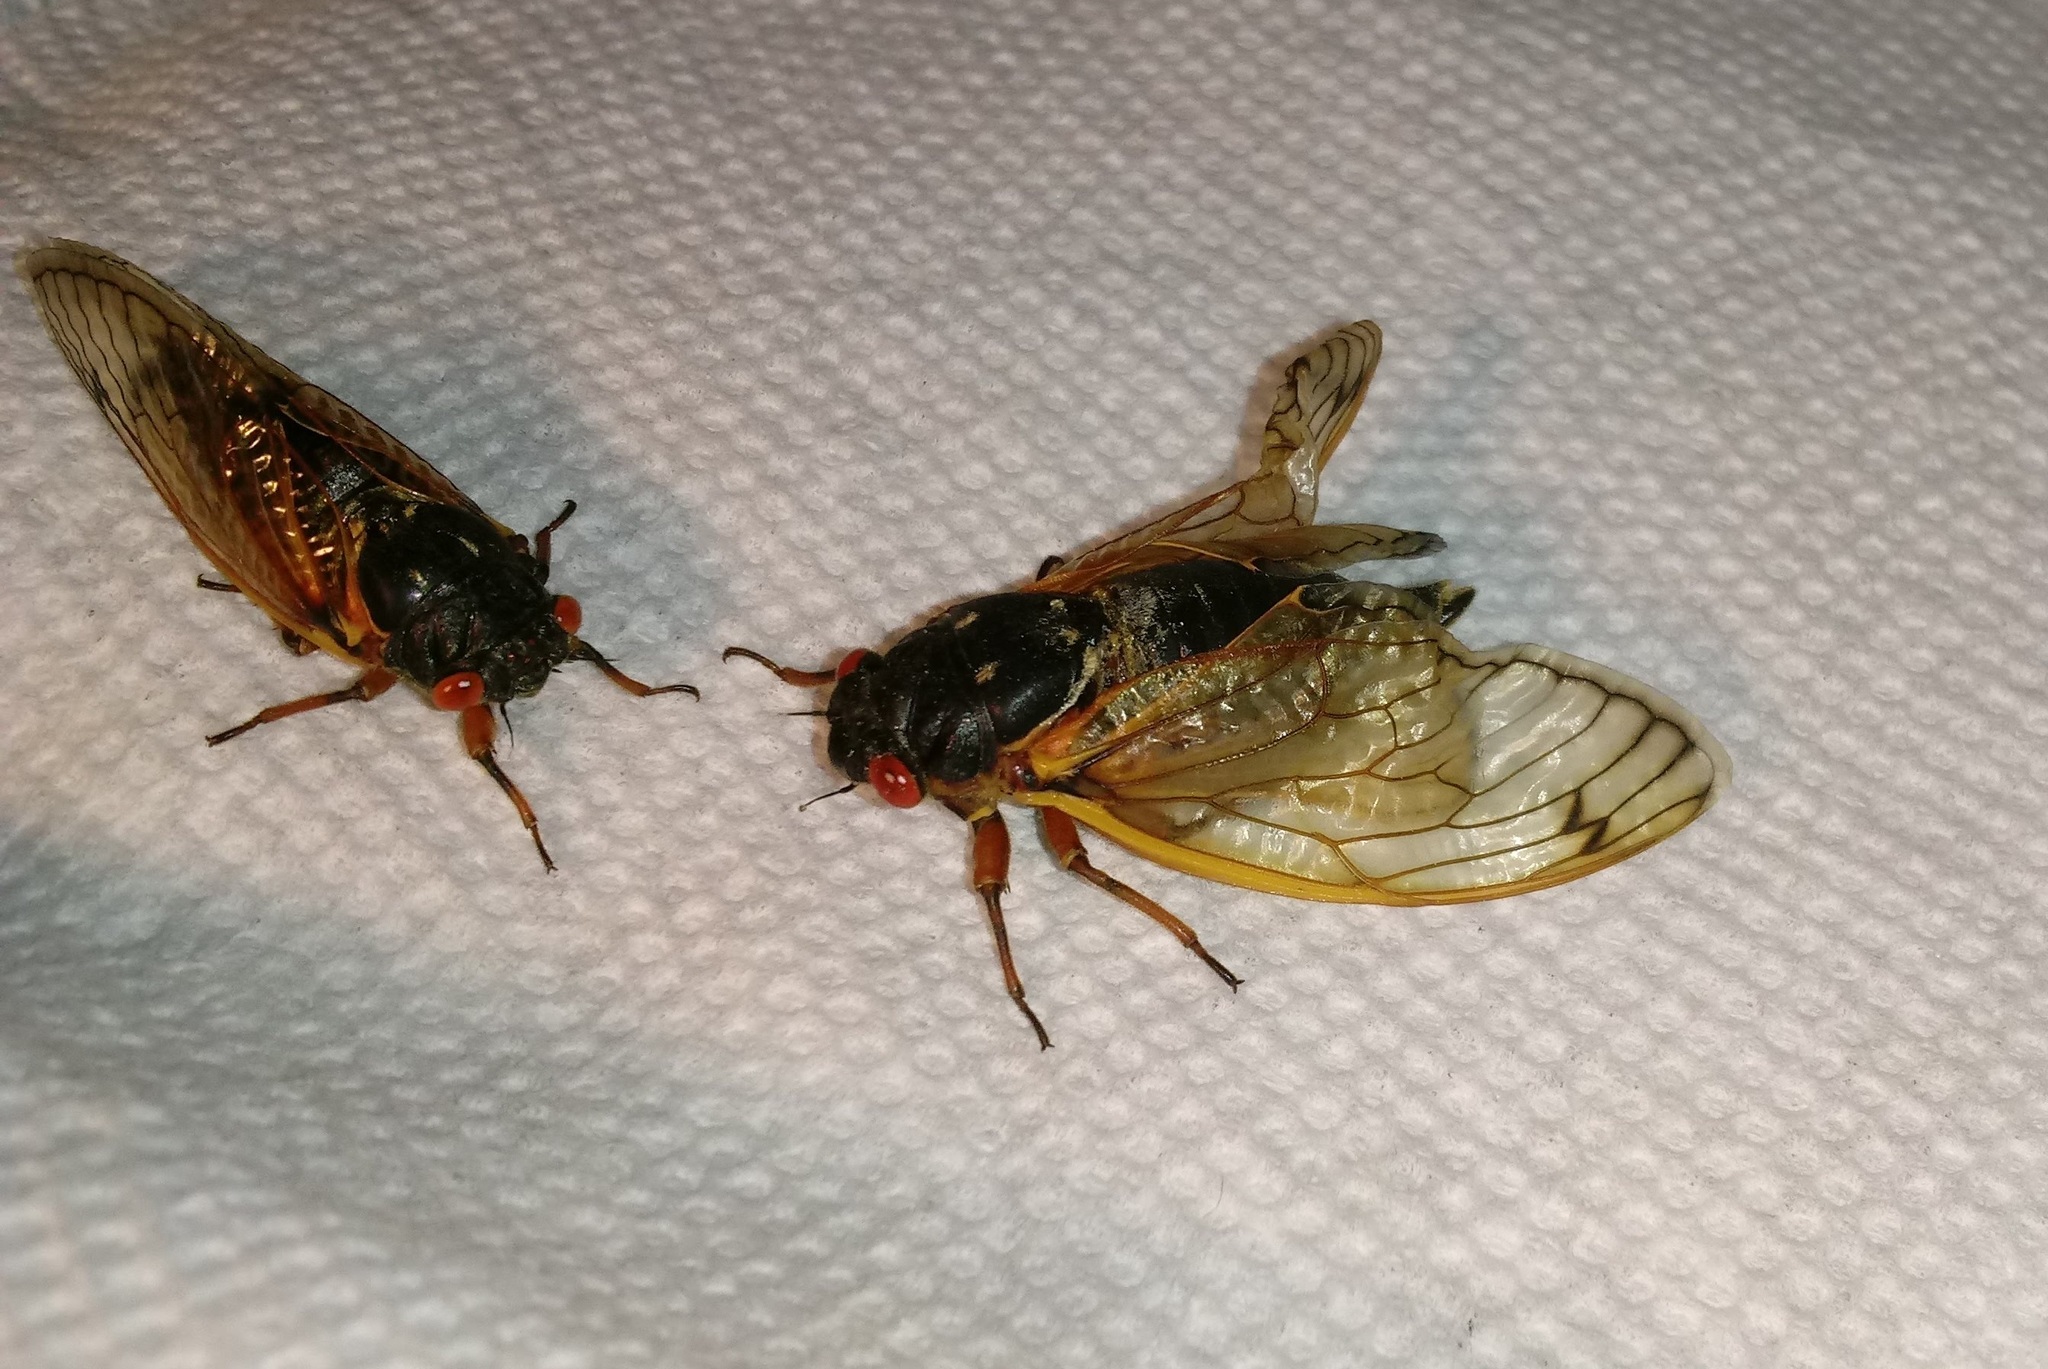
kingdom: Animalia
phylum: Arthropoda
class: Insecta
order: Hemiptera
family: Cicadidae
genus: Magicicada
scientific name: Magicicada septendecim
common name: Periodical cicada
